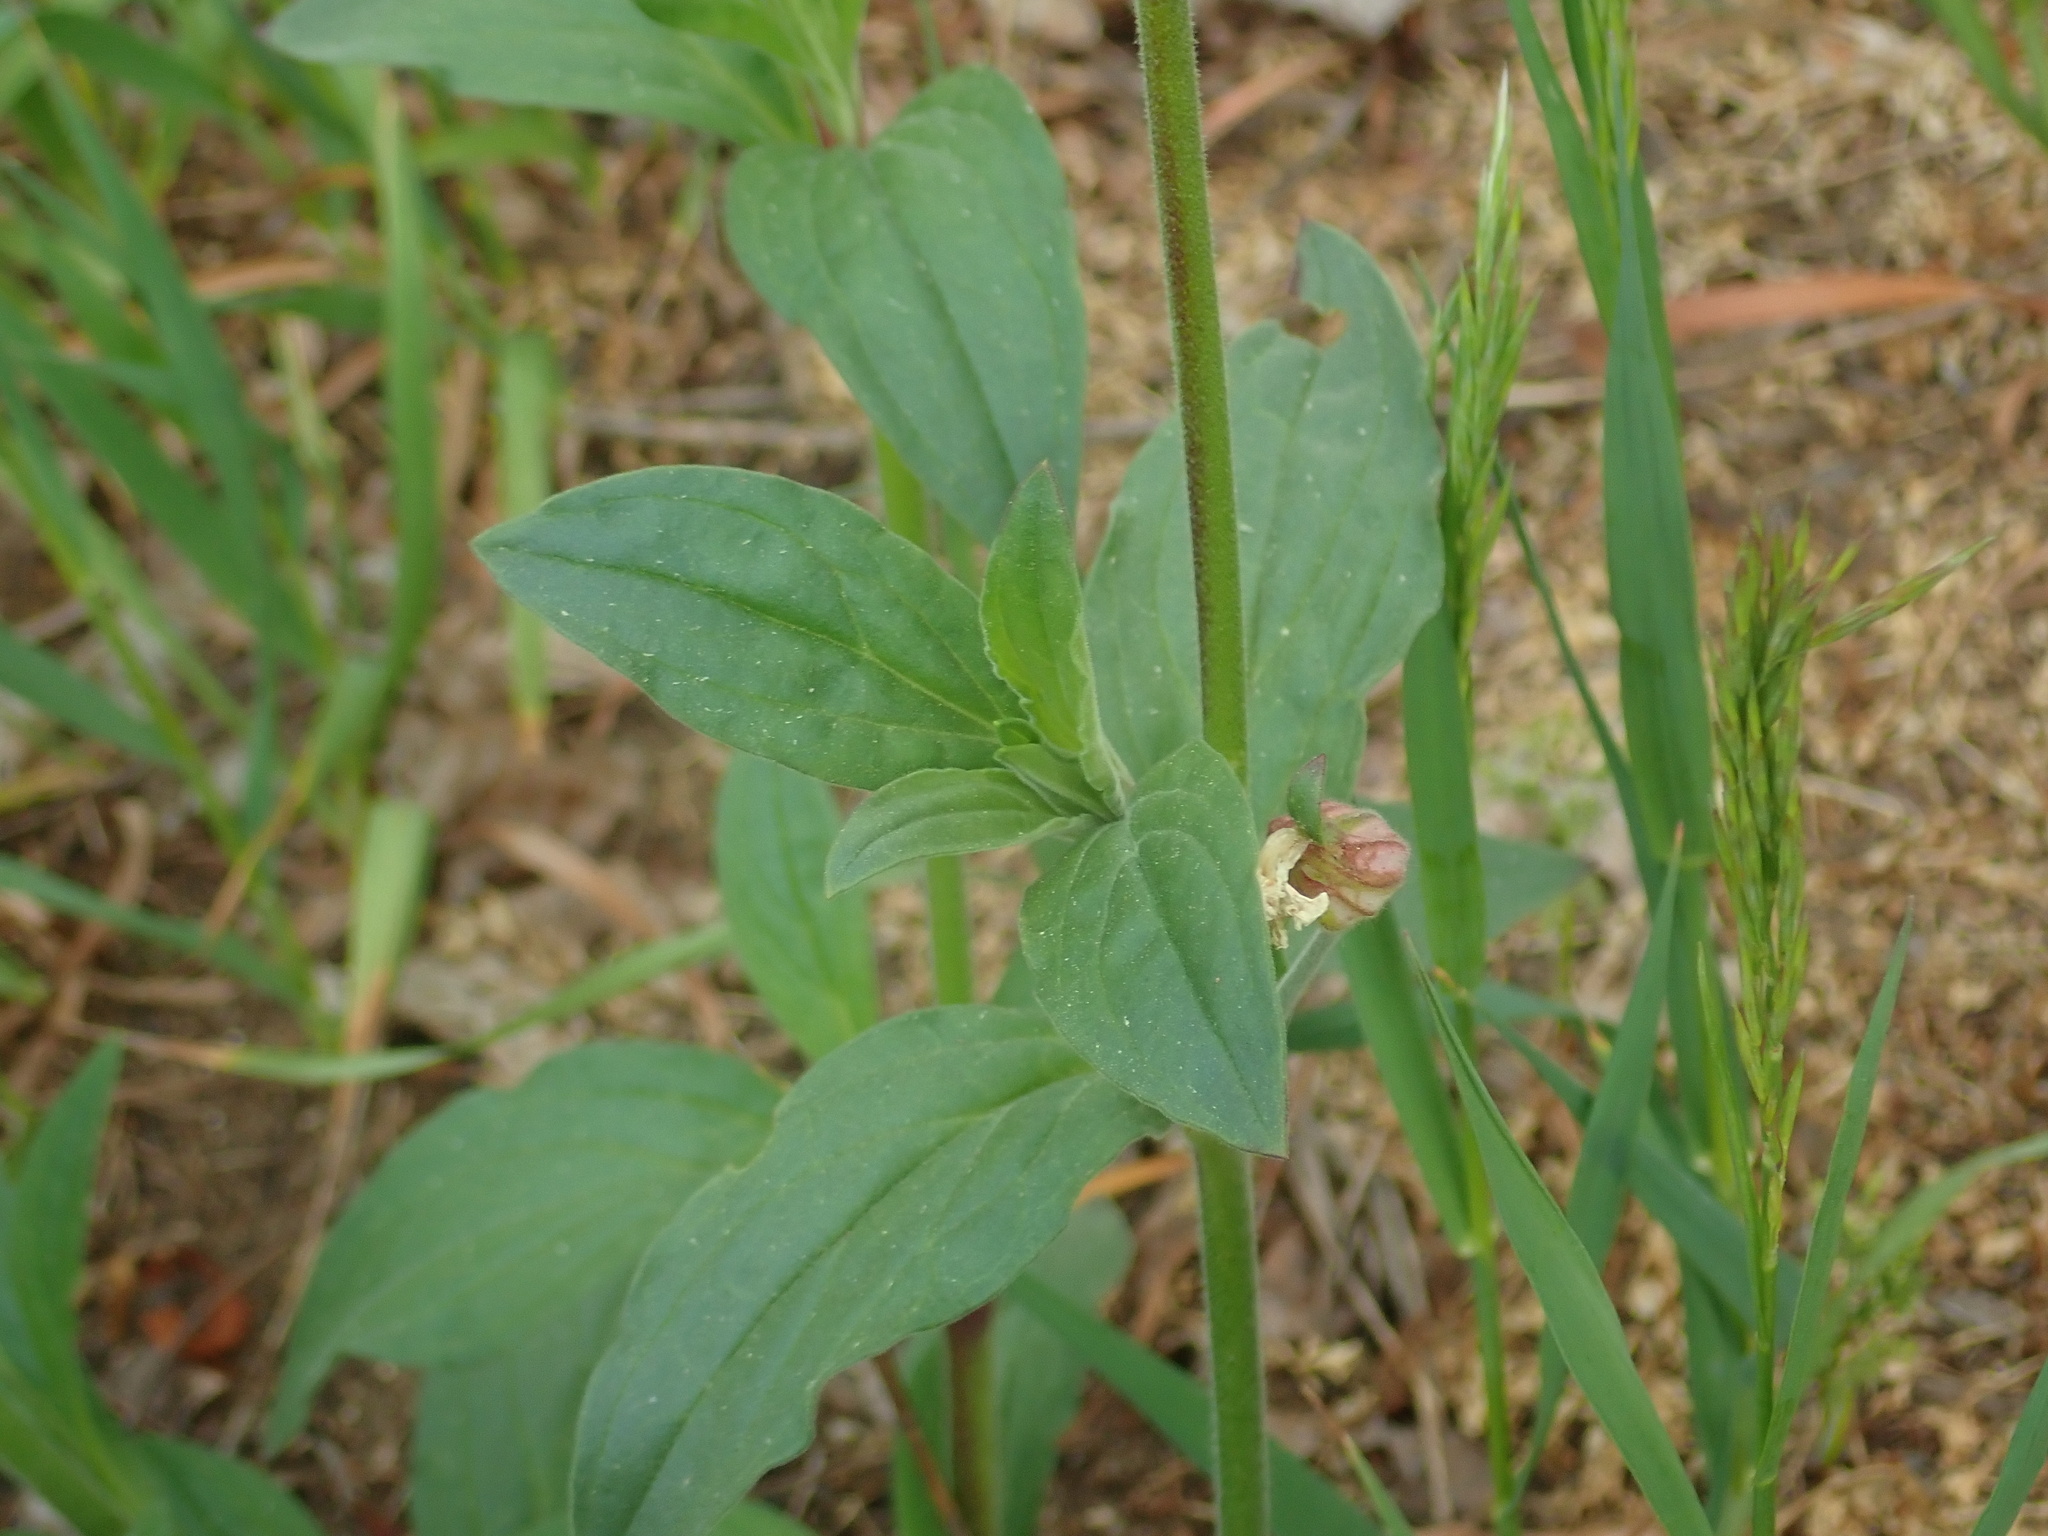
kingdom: Plantae
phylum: Tracheophyta
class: Magnoliopsida
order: Caryophyllales
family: Caryophyllaceae
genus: Silene
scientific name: Silene latifolia
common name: White campion
